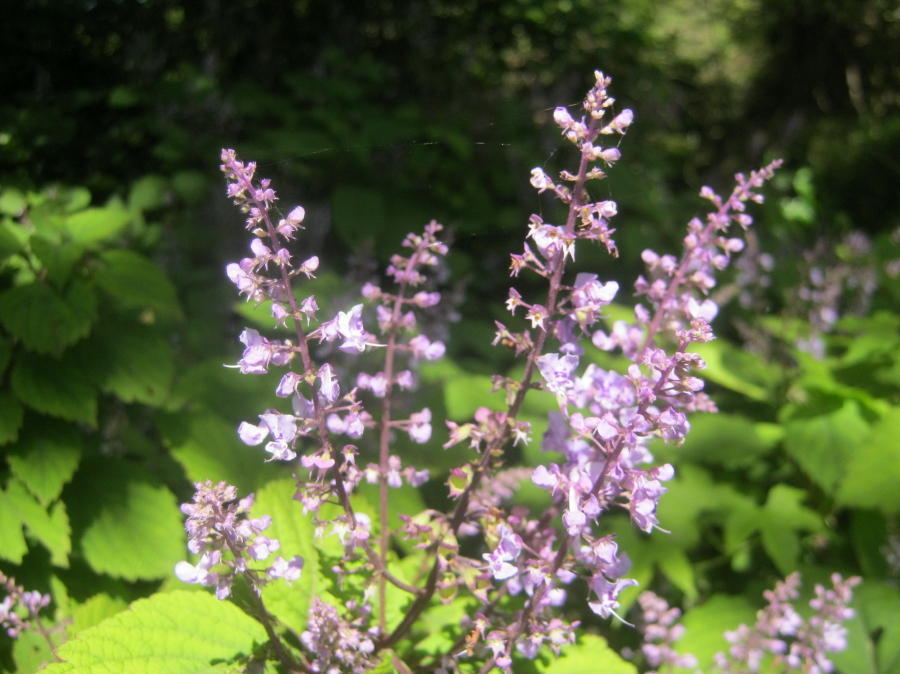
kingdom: Plantae
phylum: Tracheophyta
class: Magnoliopsida
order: Lamiales
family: Lamiaceae
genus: Plectranthus
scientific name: Plectranthus fruticosus
